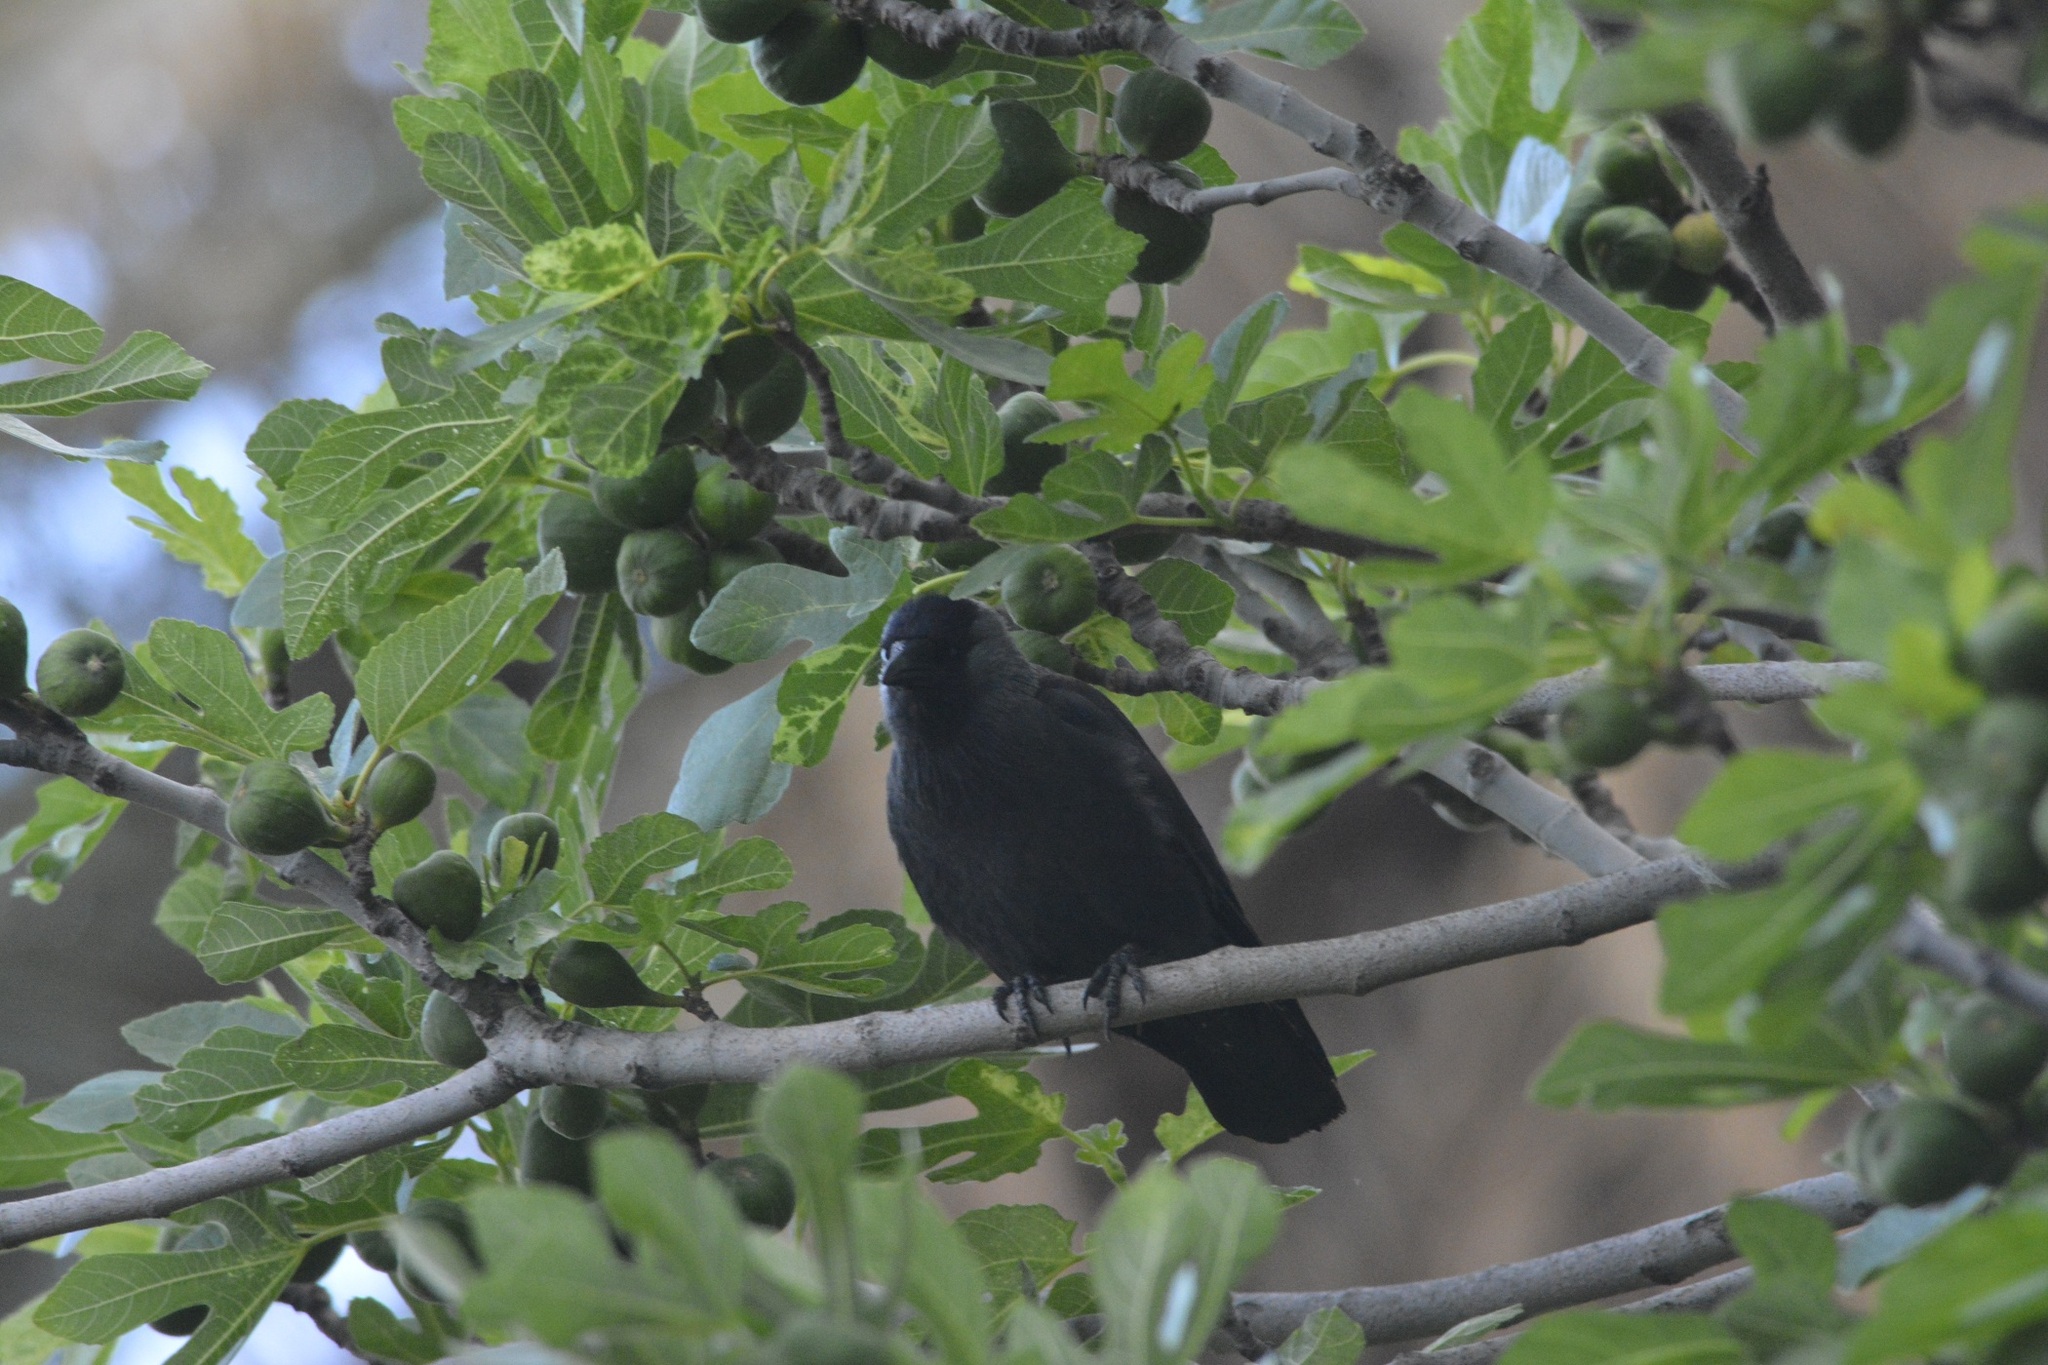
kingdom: Animalia
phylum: Chordata
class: Aves
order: Passeriformes
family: Corvidae
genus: Coloeus
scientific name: Coloeus monedula
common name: Western jackdaw
